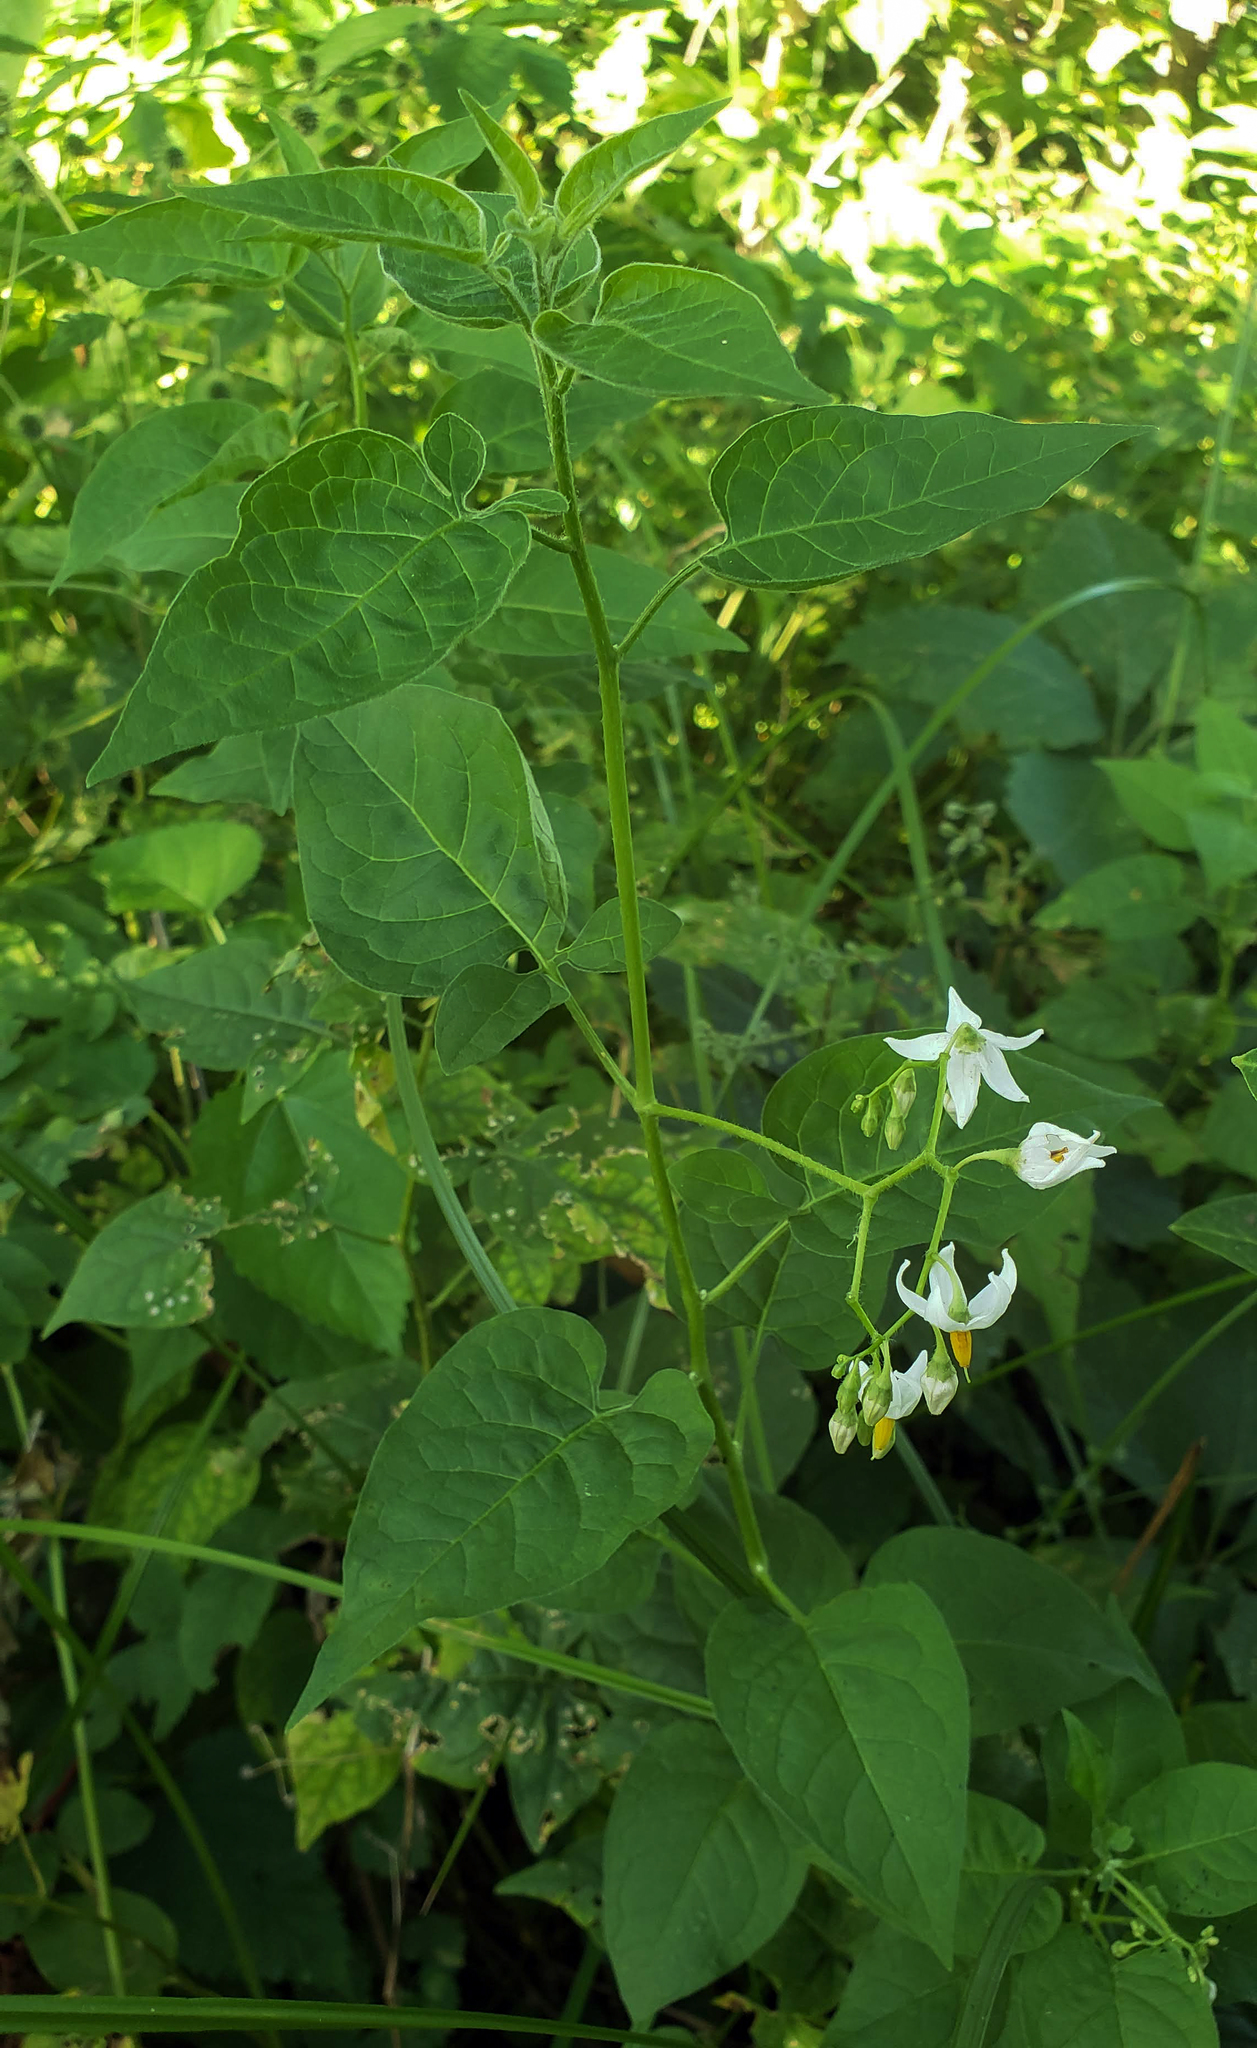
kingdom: Plantae
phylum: Tracheophyta
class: Magnoliopsida
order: Solanales
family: Solanaceae
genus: Solanum
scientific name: Solanum dulcamara
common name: Climbing nightshade
